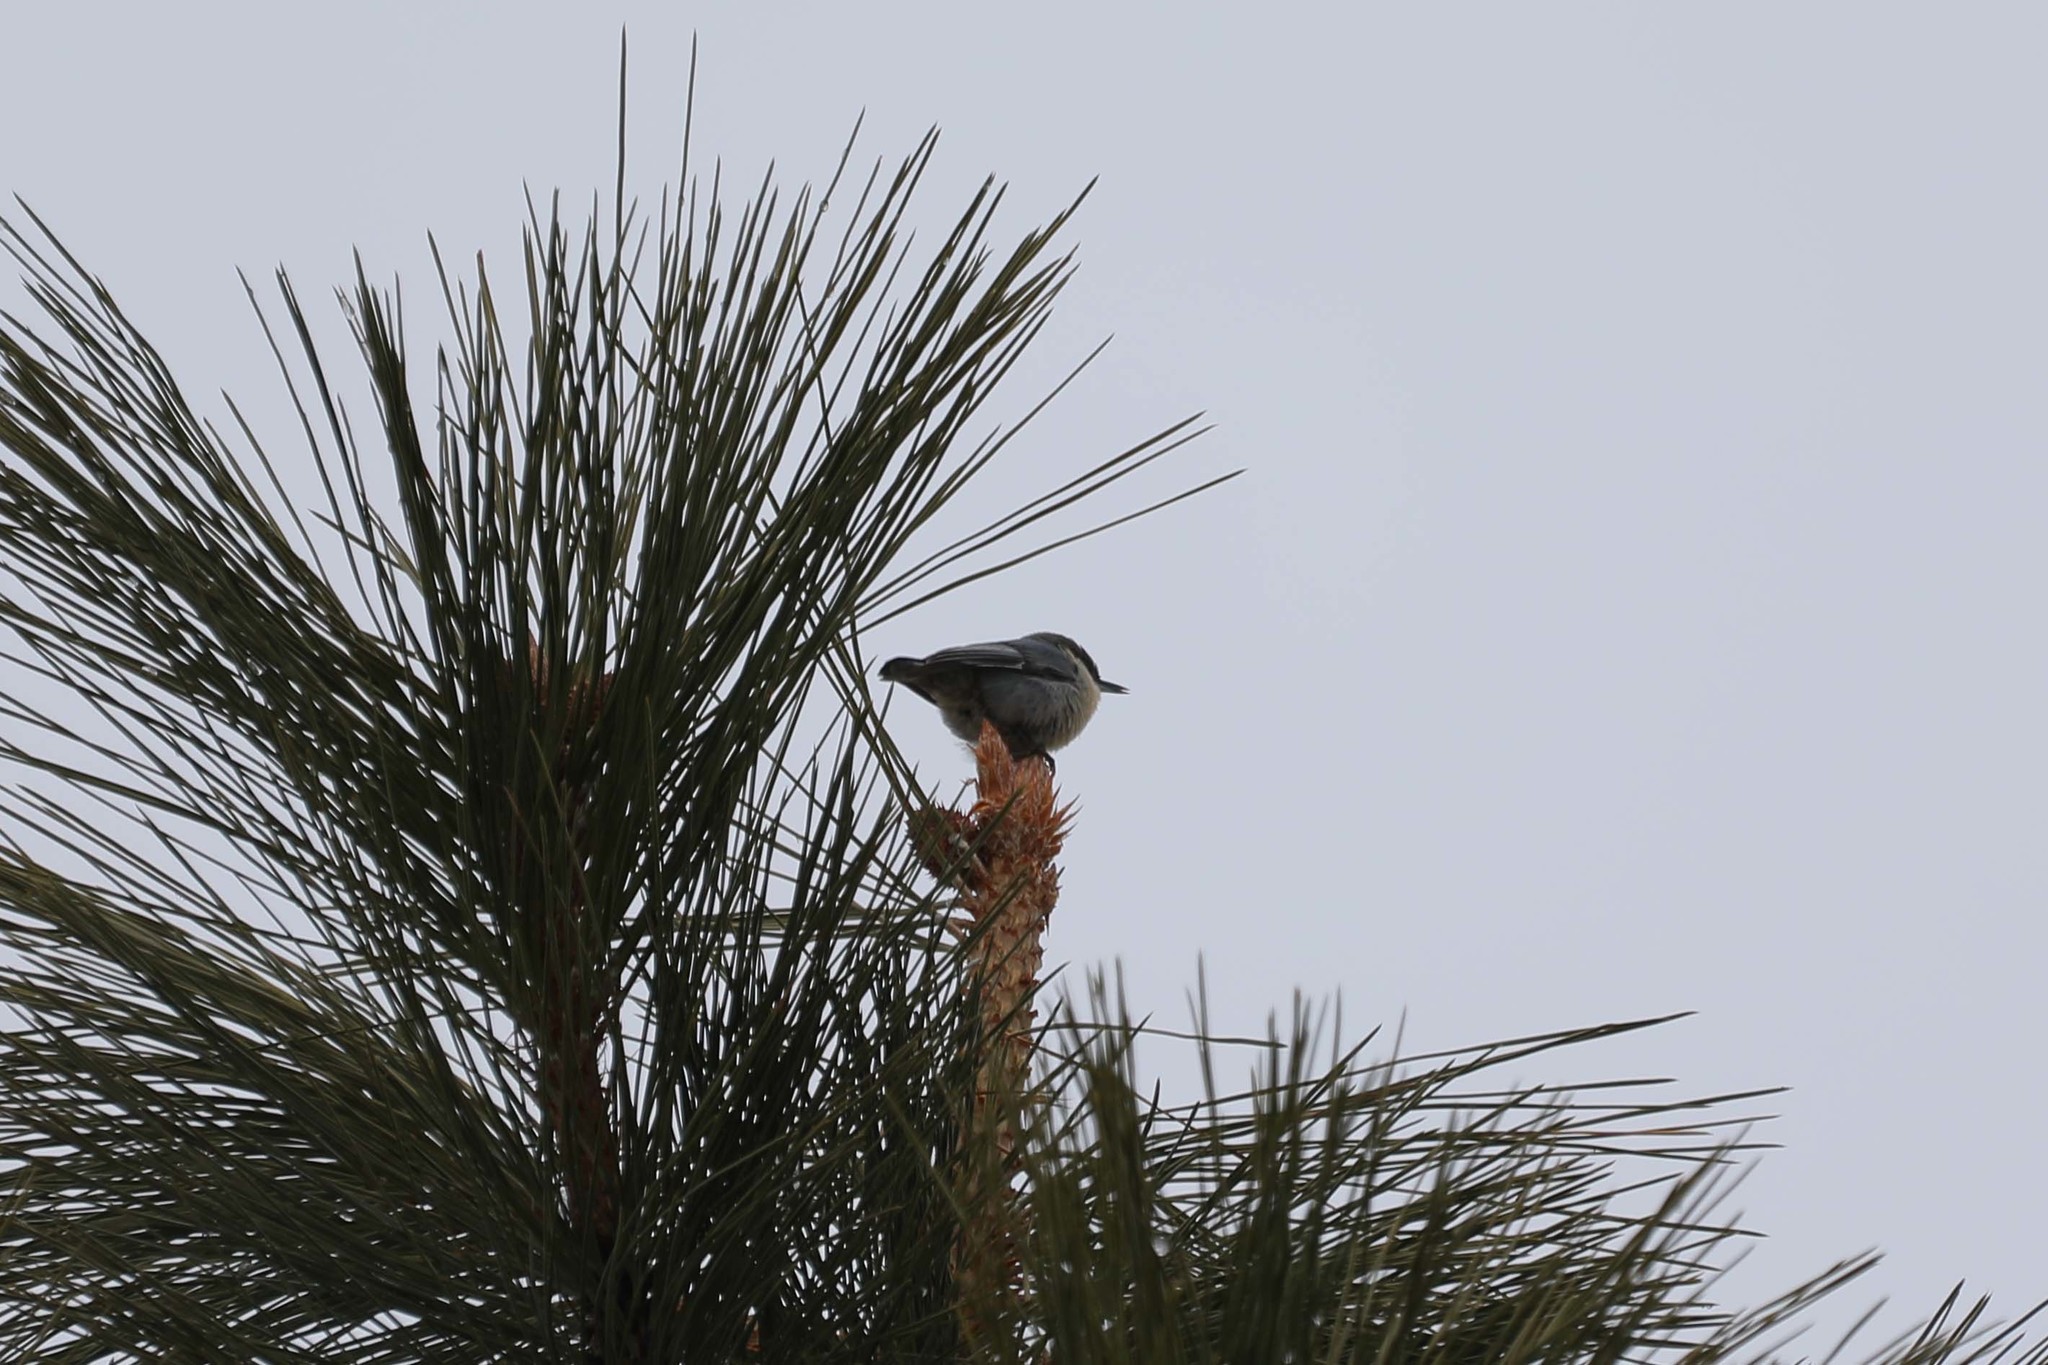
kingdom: Animalia
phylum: Chordata
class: Aves
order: Passeriformes
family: Sittidae
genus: Sitta
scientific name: Sitta pygmaea
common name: Pygmy nuthatch
